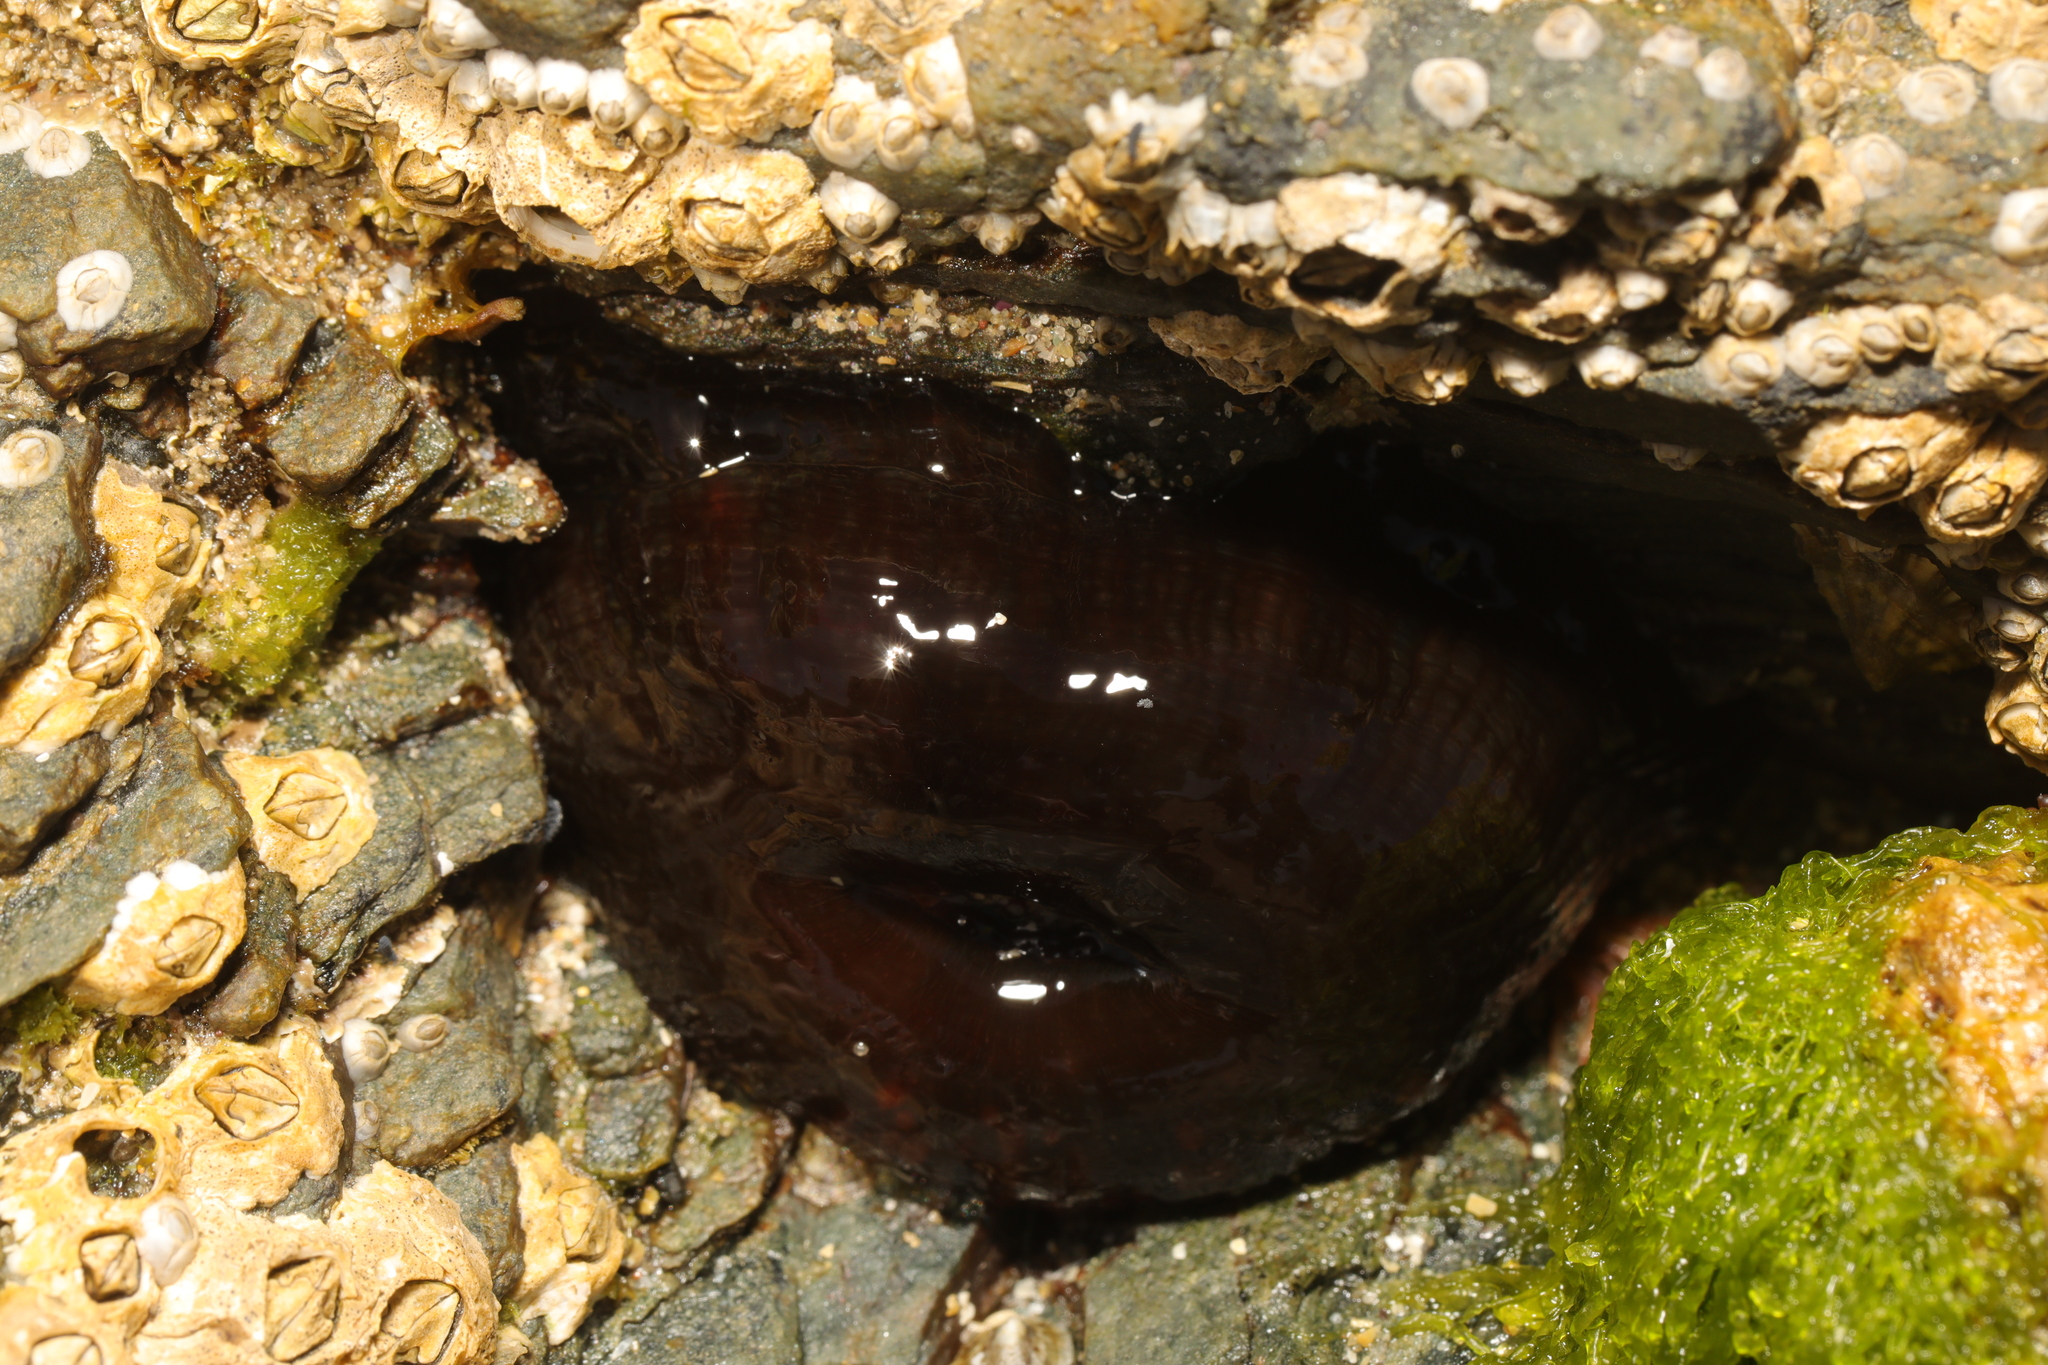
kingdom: Animalia
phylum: Cnidaria
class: Anthozoa
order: Actiniaria
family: Actiniidae
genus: Actinia
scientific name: Actinia equina
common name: Beadlet anemone
